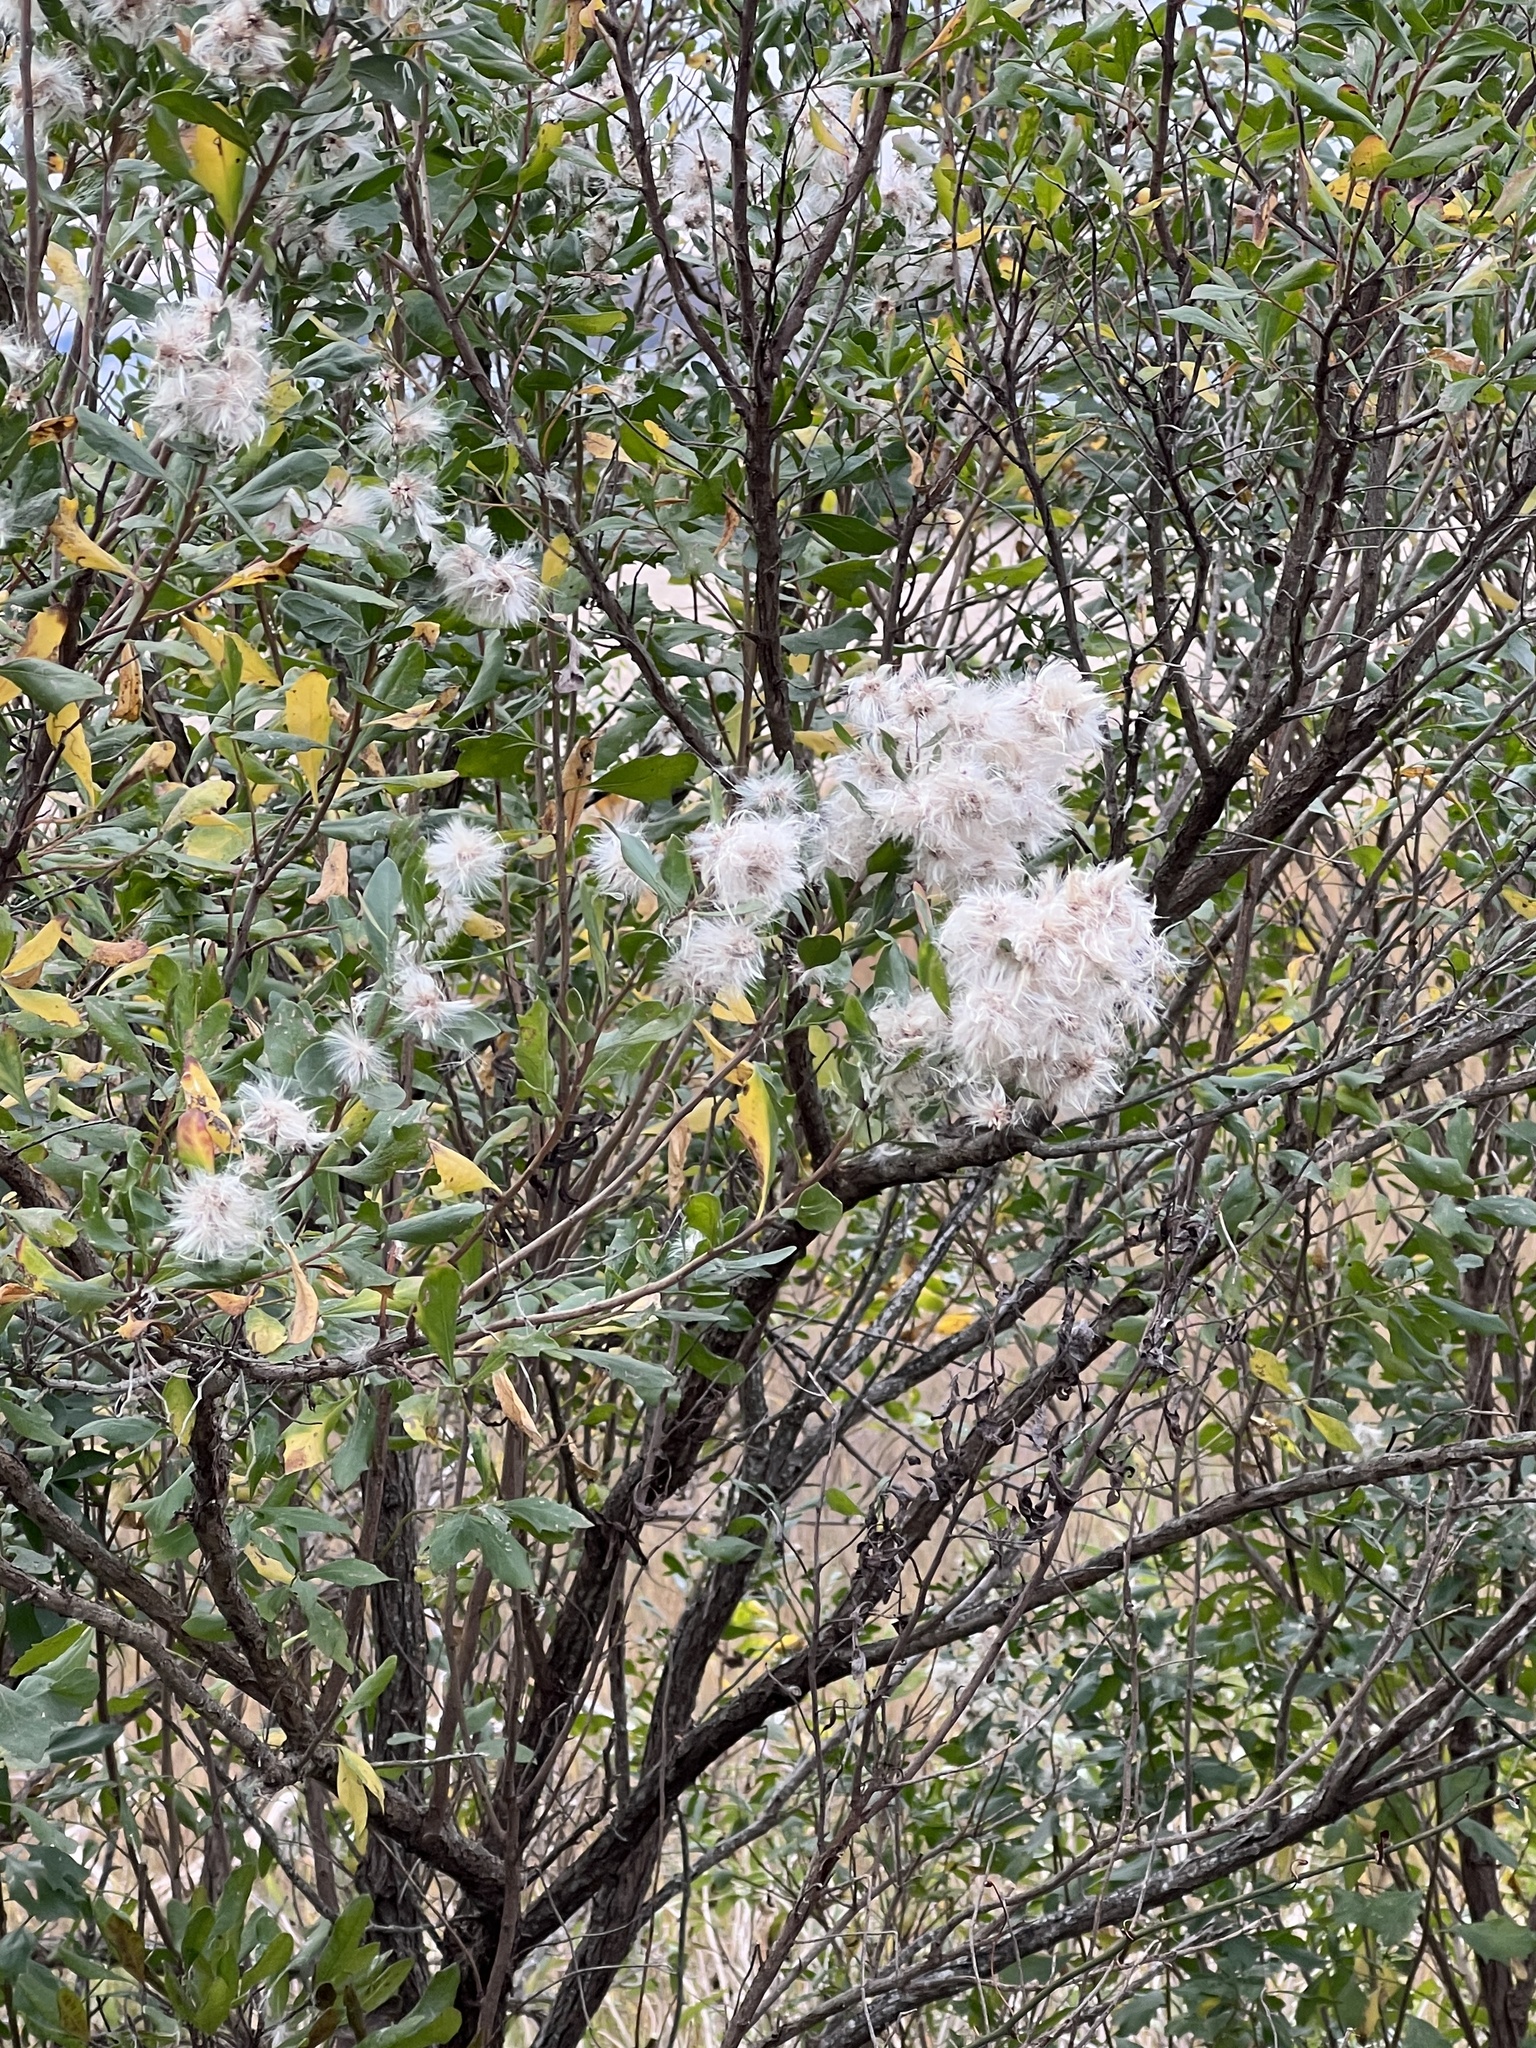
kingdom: Plantae
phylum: Tracheophyta
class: Magnoliopsida
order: Asterales
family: Asteraceae
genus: Baccharis
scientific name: Baccharis halimifolia
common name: Eastern baccharis
